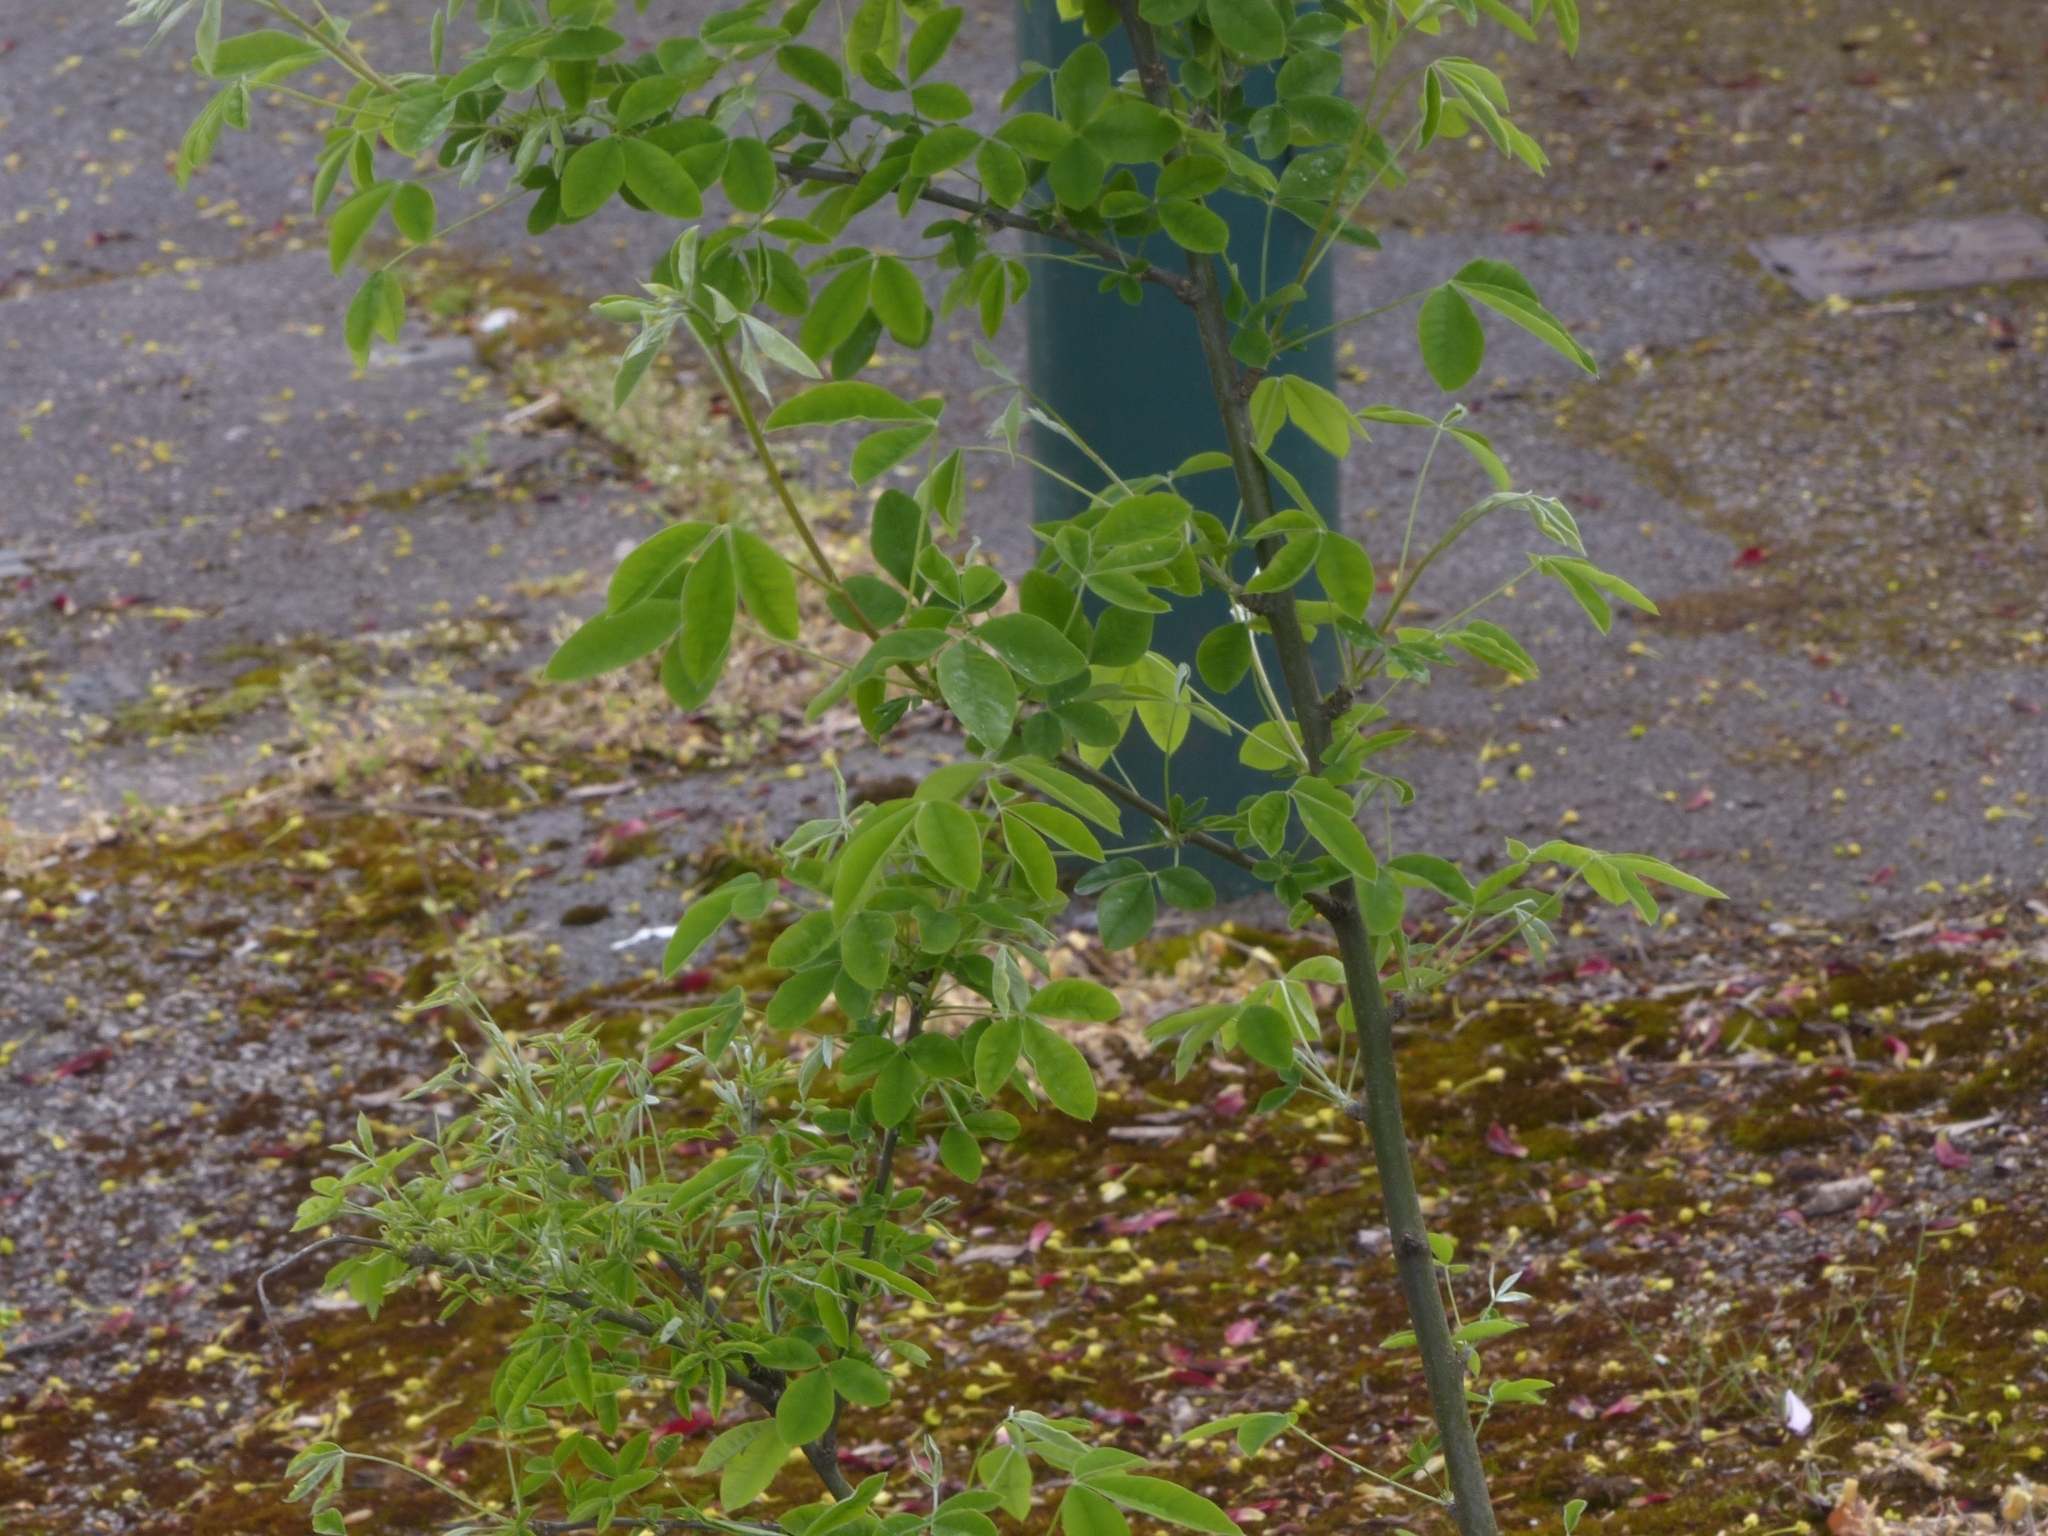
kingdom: Plantae
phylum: Tracheophyta
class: Magnoliopsida
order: Fabales
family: Fabaceae
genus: Laburnum
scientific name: Laburnum anagyroides
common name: Laburnum
